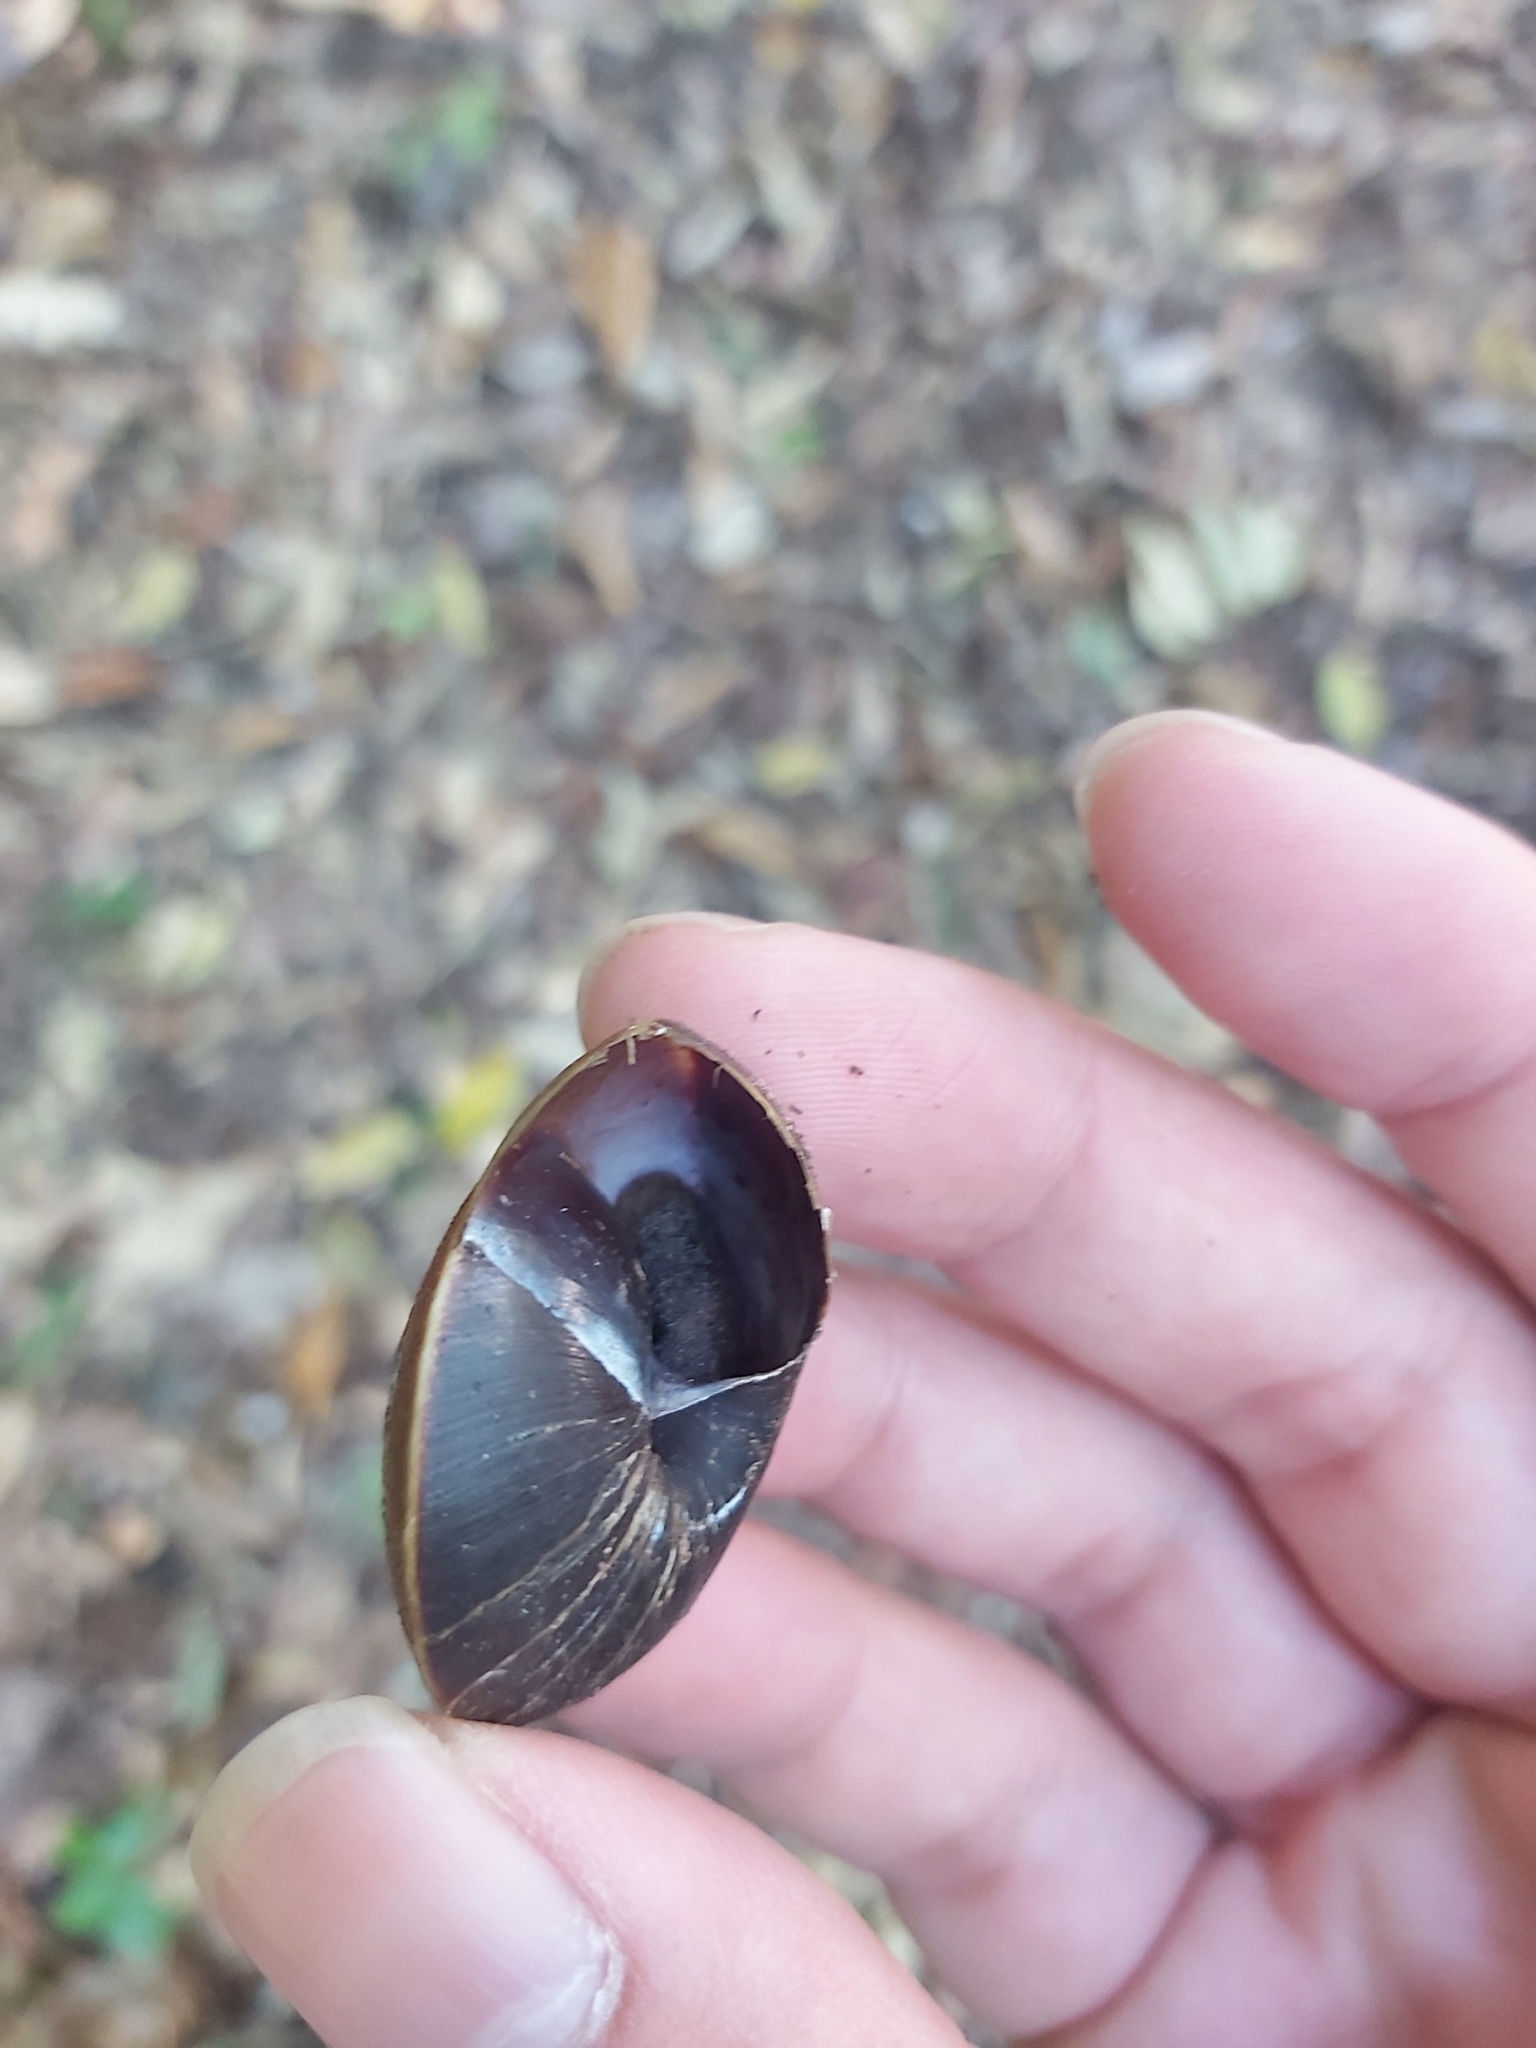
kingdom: Animalia
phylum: Mollusca
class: Gastropoda
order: Stylommatophora
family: Camaenidae
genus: Hadra
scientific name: Hadra webbi
